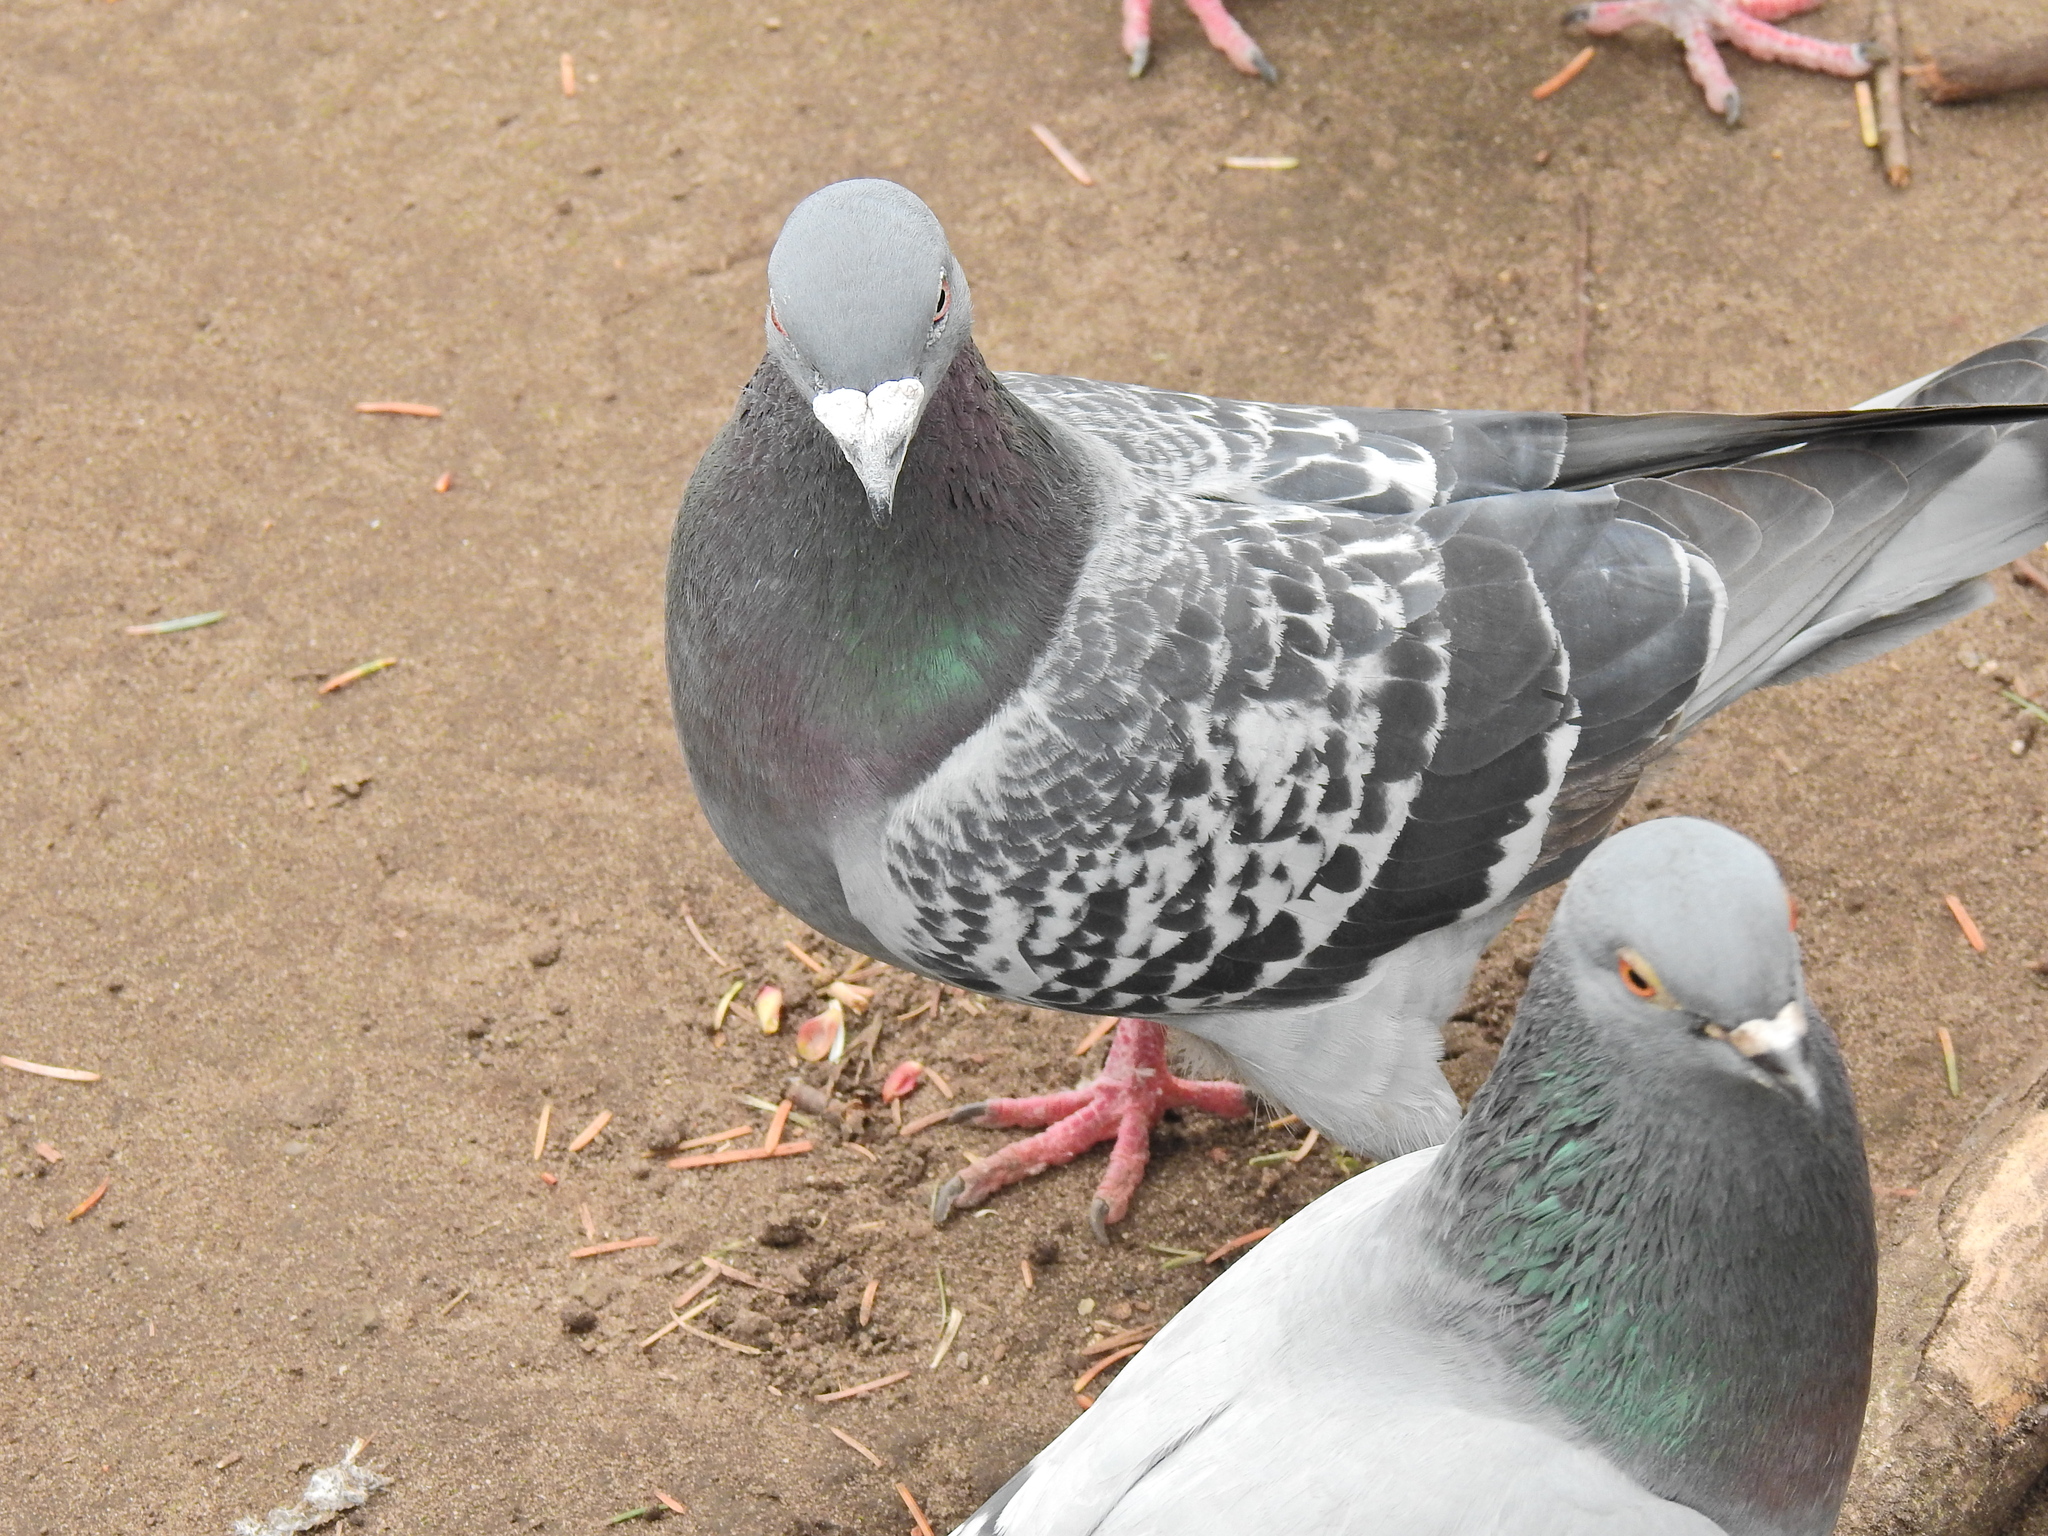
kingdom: Animalia
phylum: Chordata
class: Aves
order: Columbiformes
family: Columbidae
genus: Columba
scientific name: Columba livia
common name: Rock pigeon
